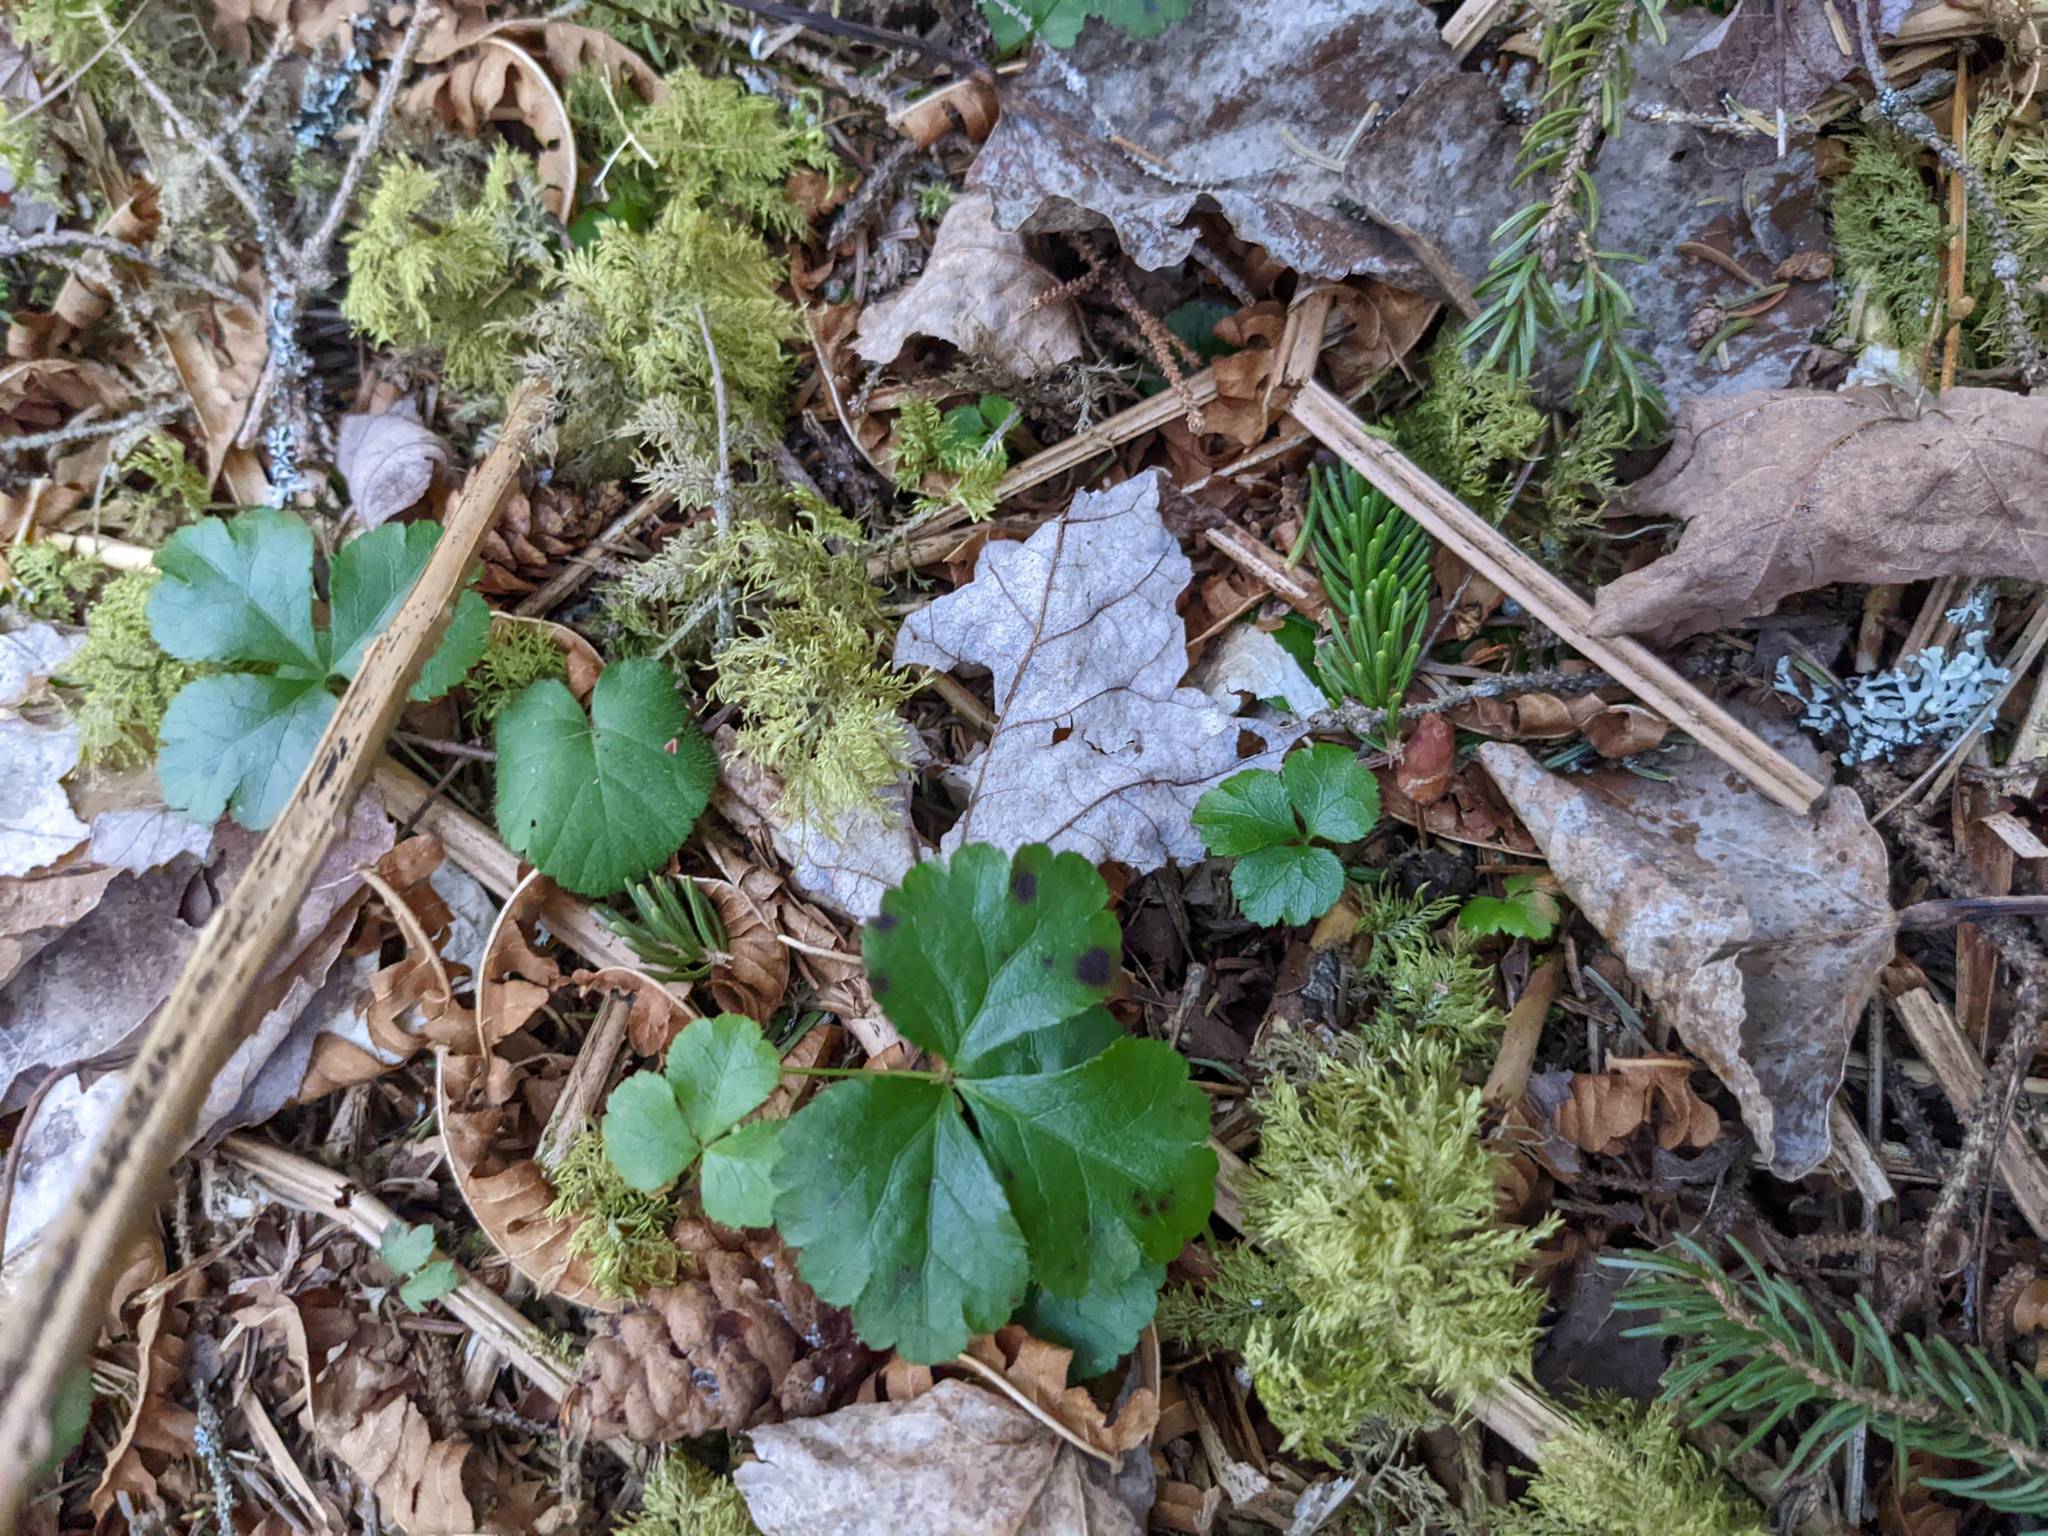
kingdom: Plantae
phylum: Tracheophyta
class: Magnoliopsida
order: Ranunculales
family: Ranunculaceae
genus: Coptis
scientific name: Coptis trifolia
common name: Canker-root
